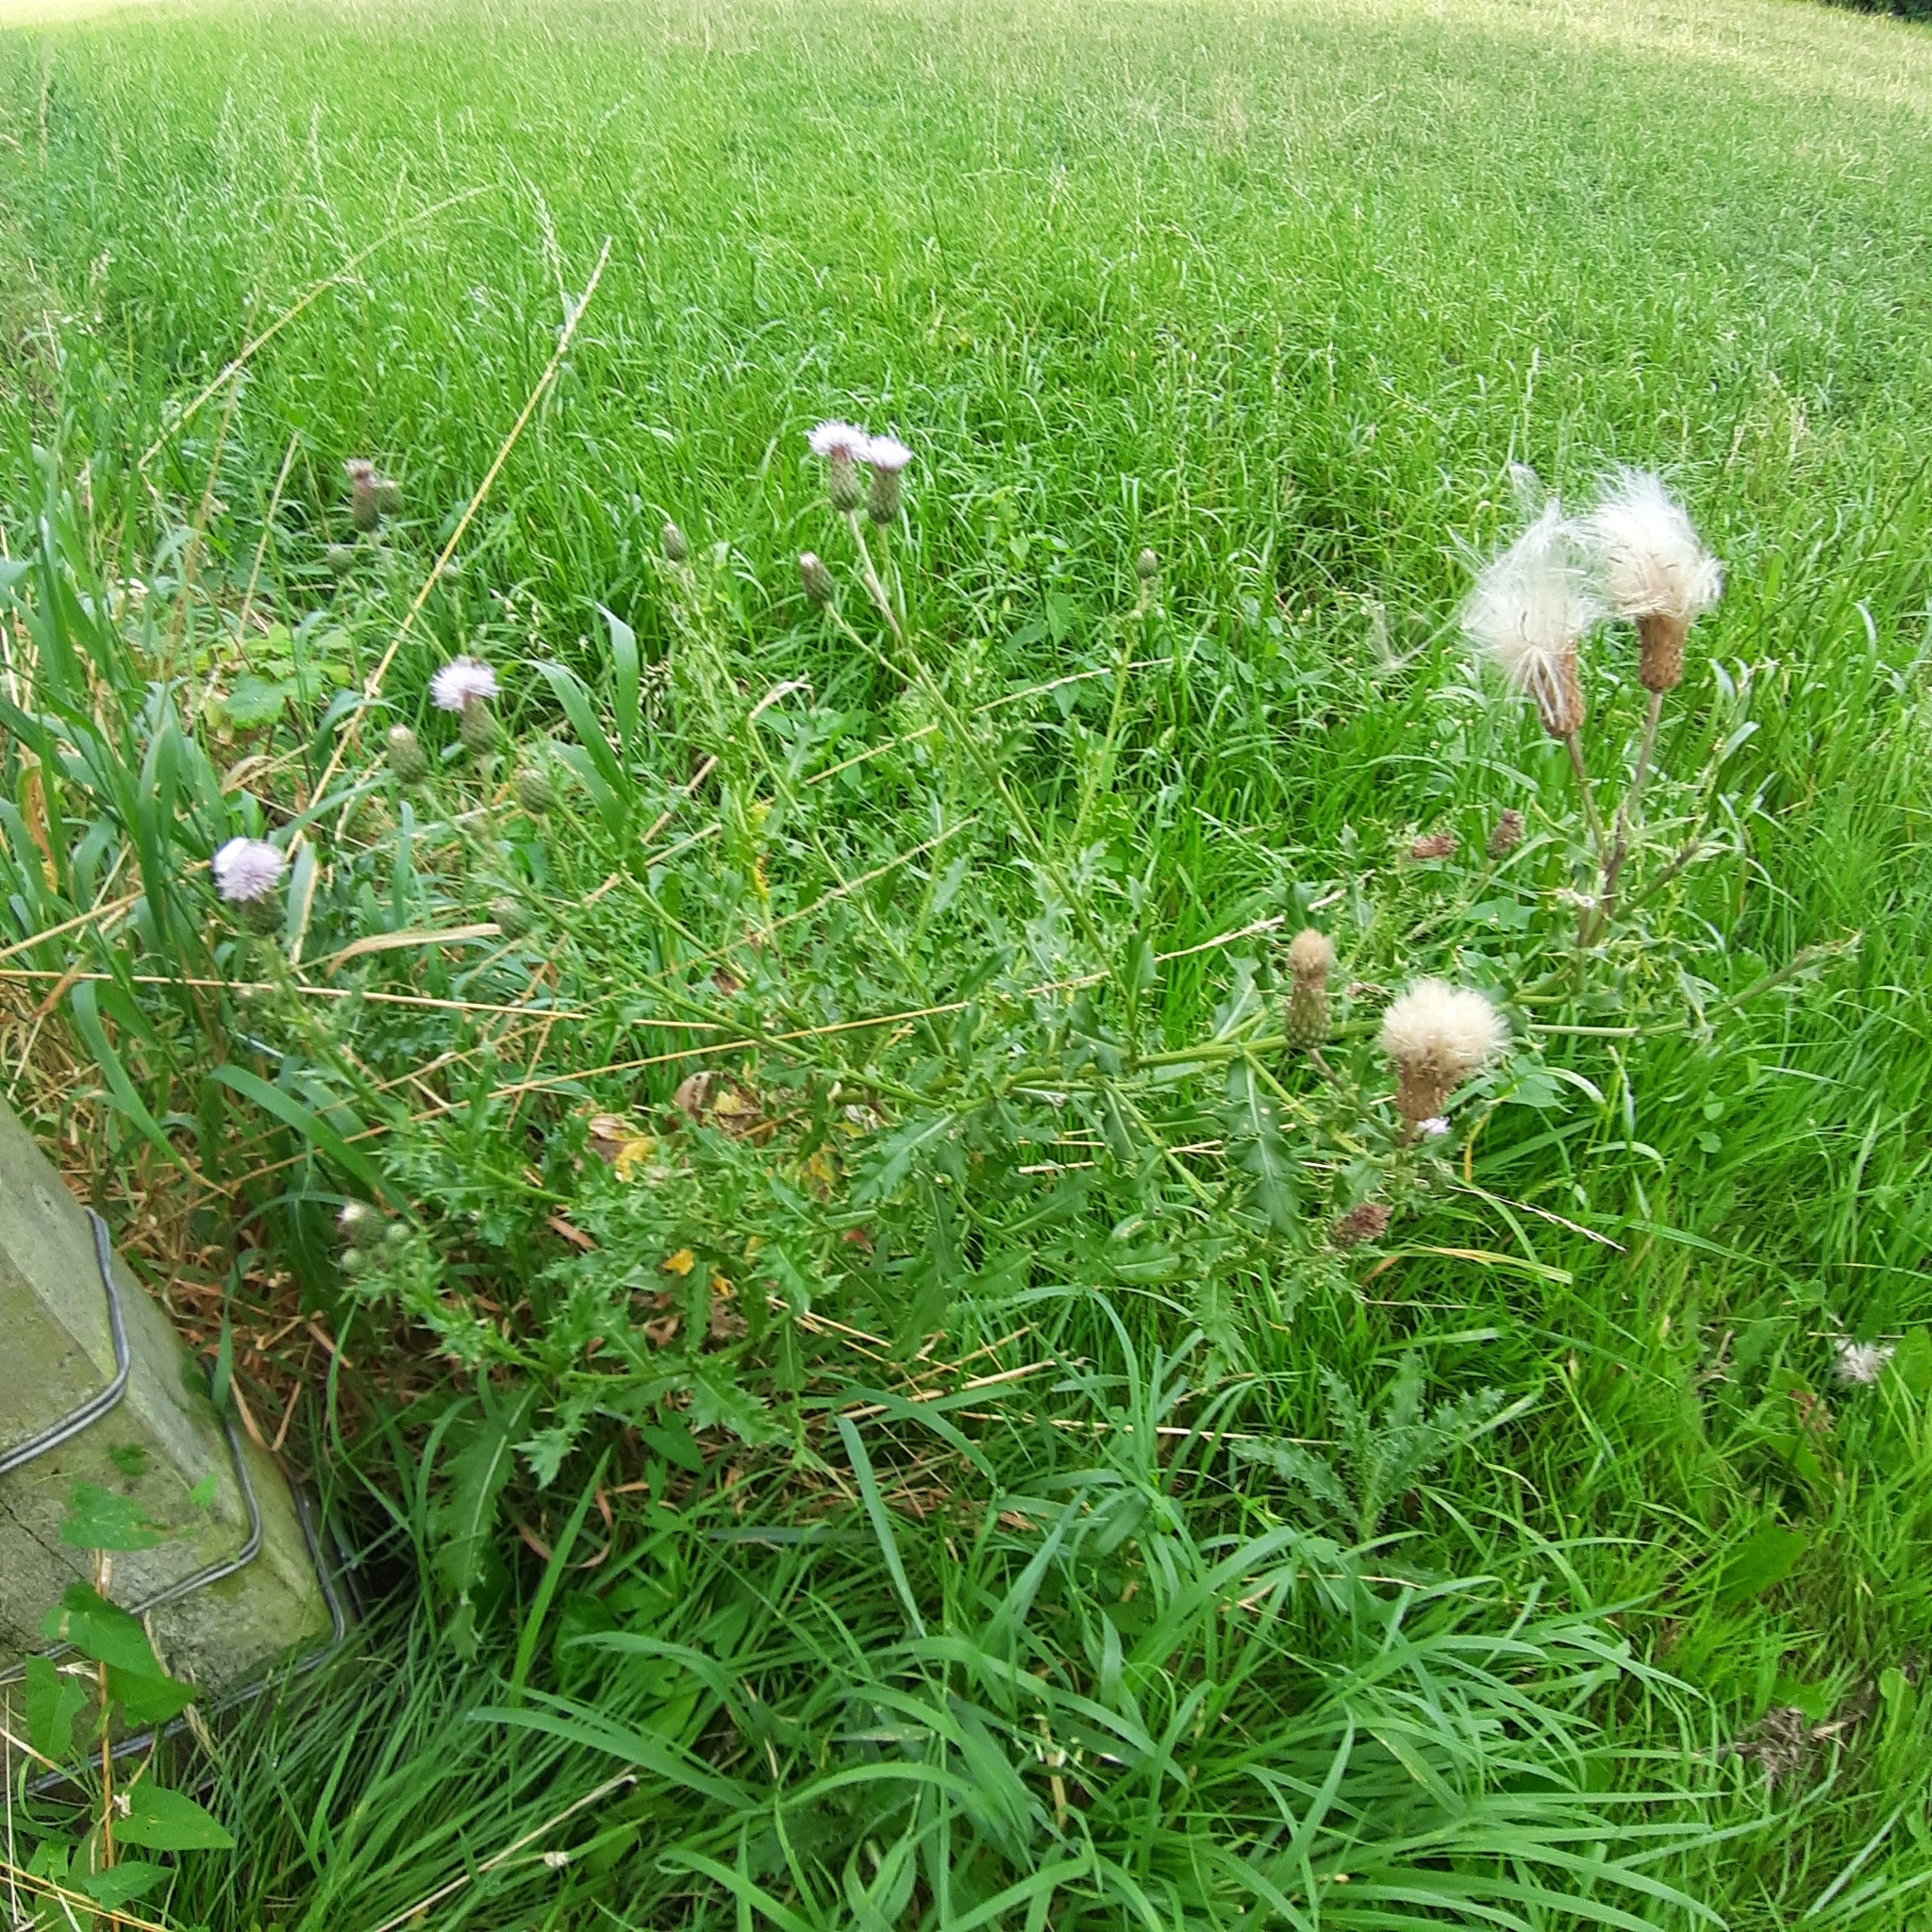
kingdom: Plantae
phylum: Tracheophyta
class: Magnoliopsida
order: Asterales
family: Asteraceae
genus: Cirsium
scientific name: Cirsium arvense
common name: Creeping thistle
